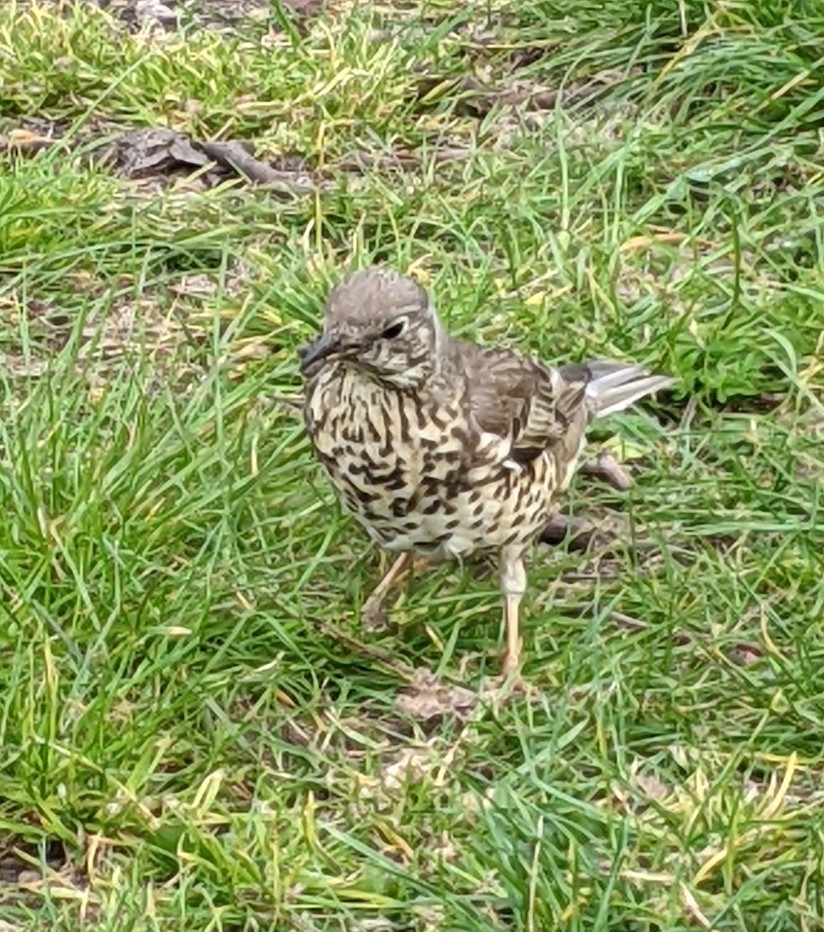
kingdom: Animalia
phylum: Chordata
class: Aves
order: Passeriformes
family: Turdidae
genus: Turdus
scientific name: Turdus viscivorus
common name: Mistle thrush
